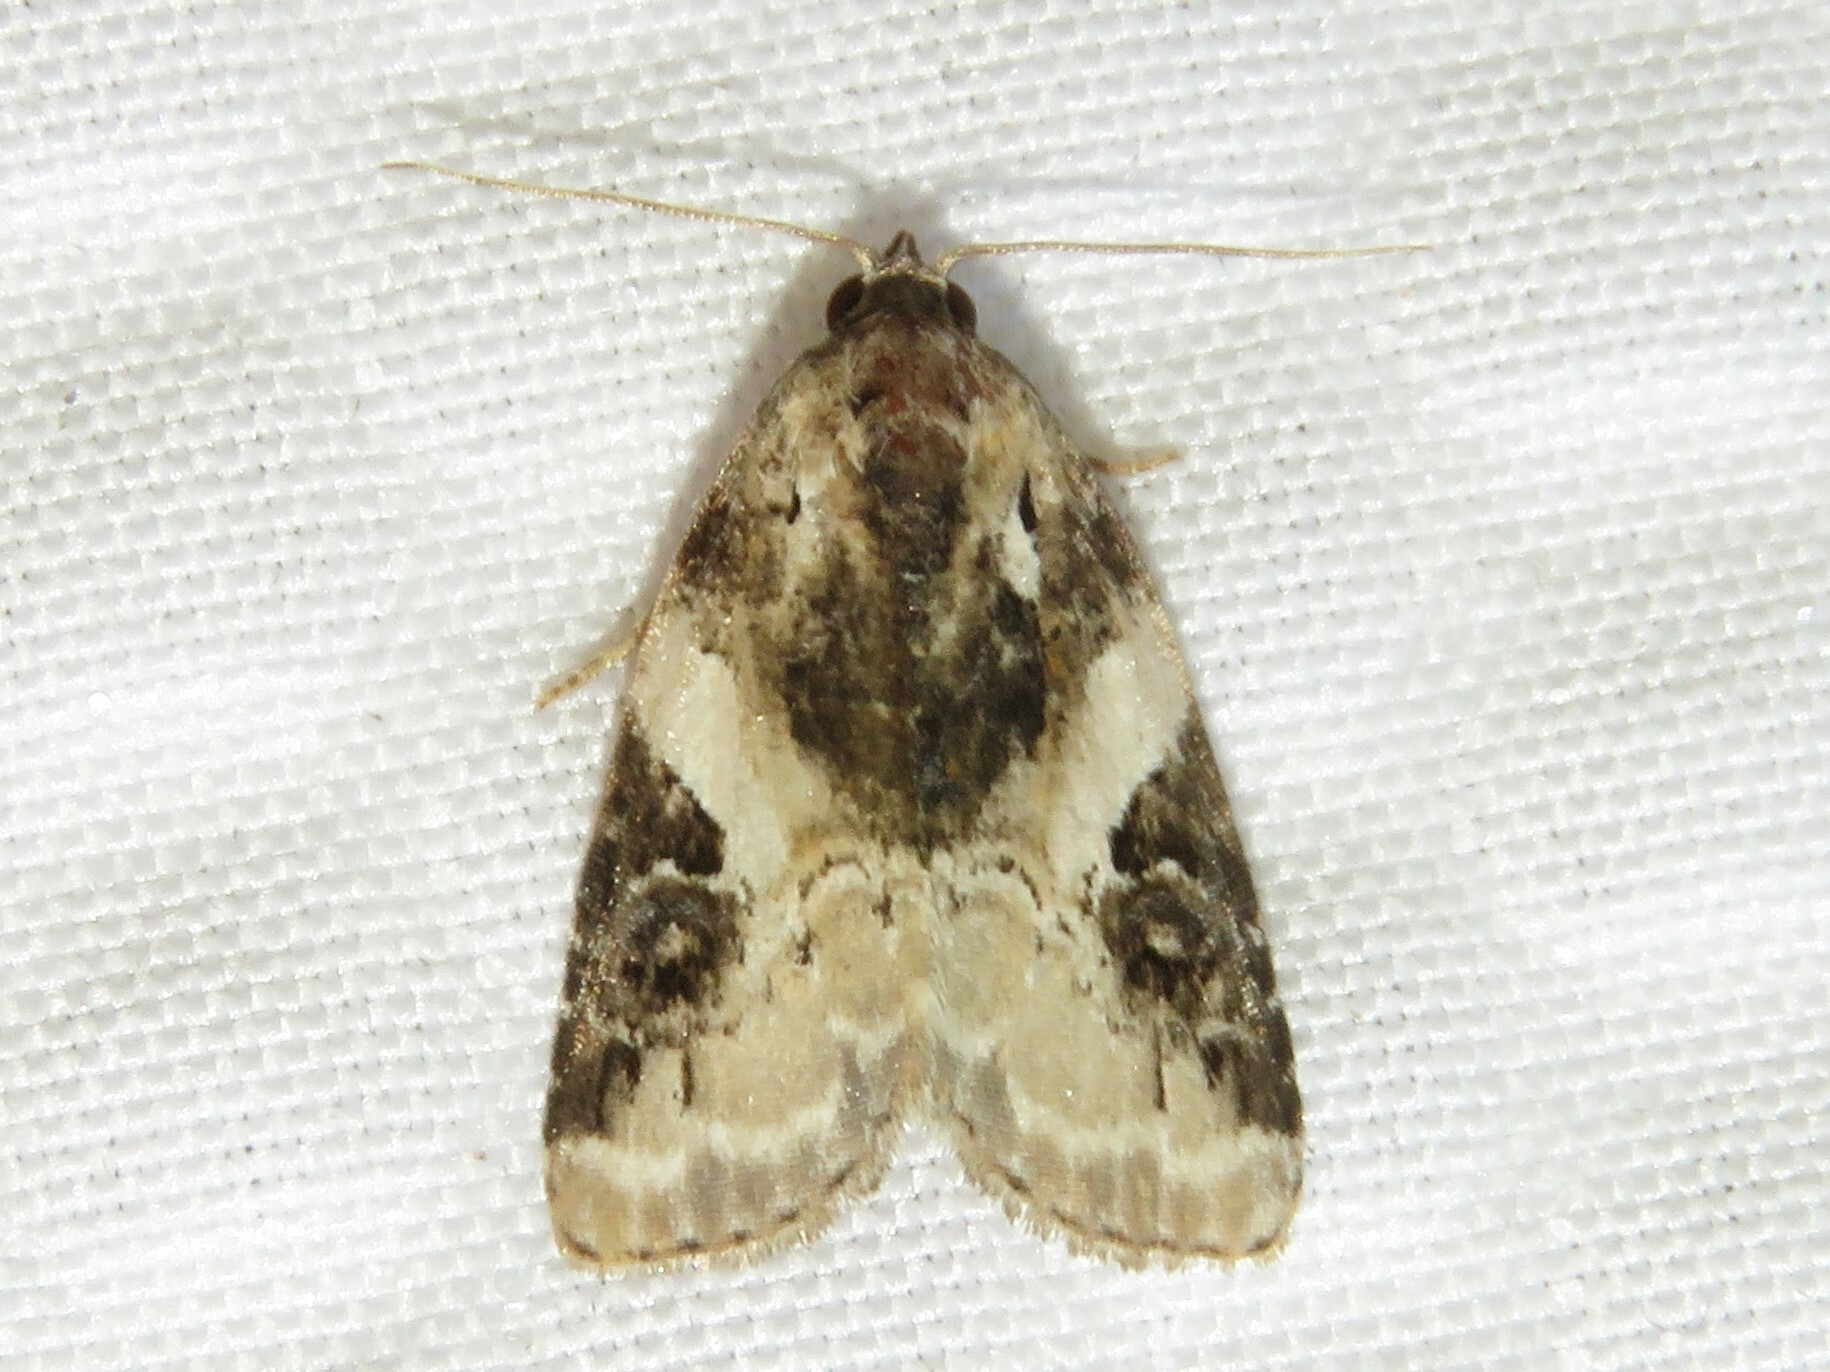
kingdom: Animalia
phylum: Arthropoda
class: Insecta
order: Lepidoptera
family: Noctuidae
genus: Pseudeustrotia
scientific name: Pseudeustrotia carneola
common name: Pink-barred lithacodia moth
